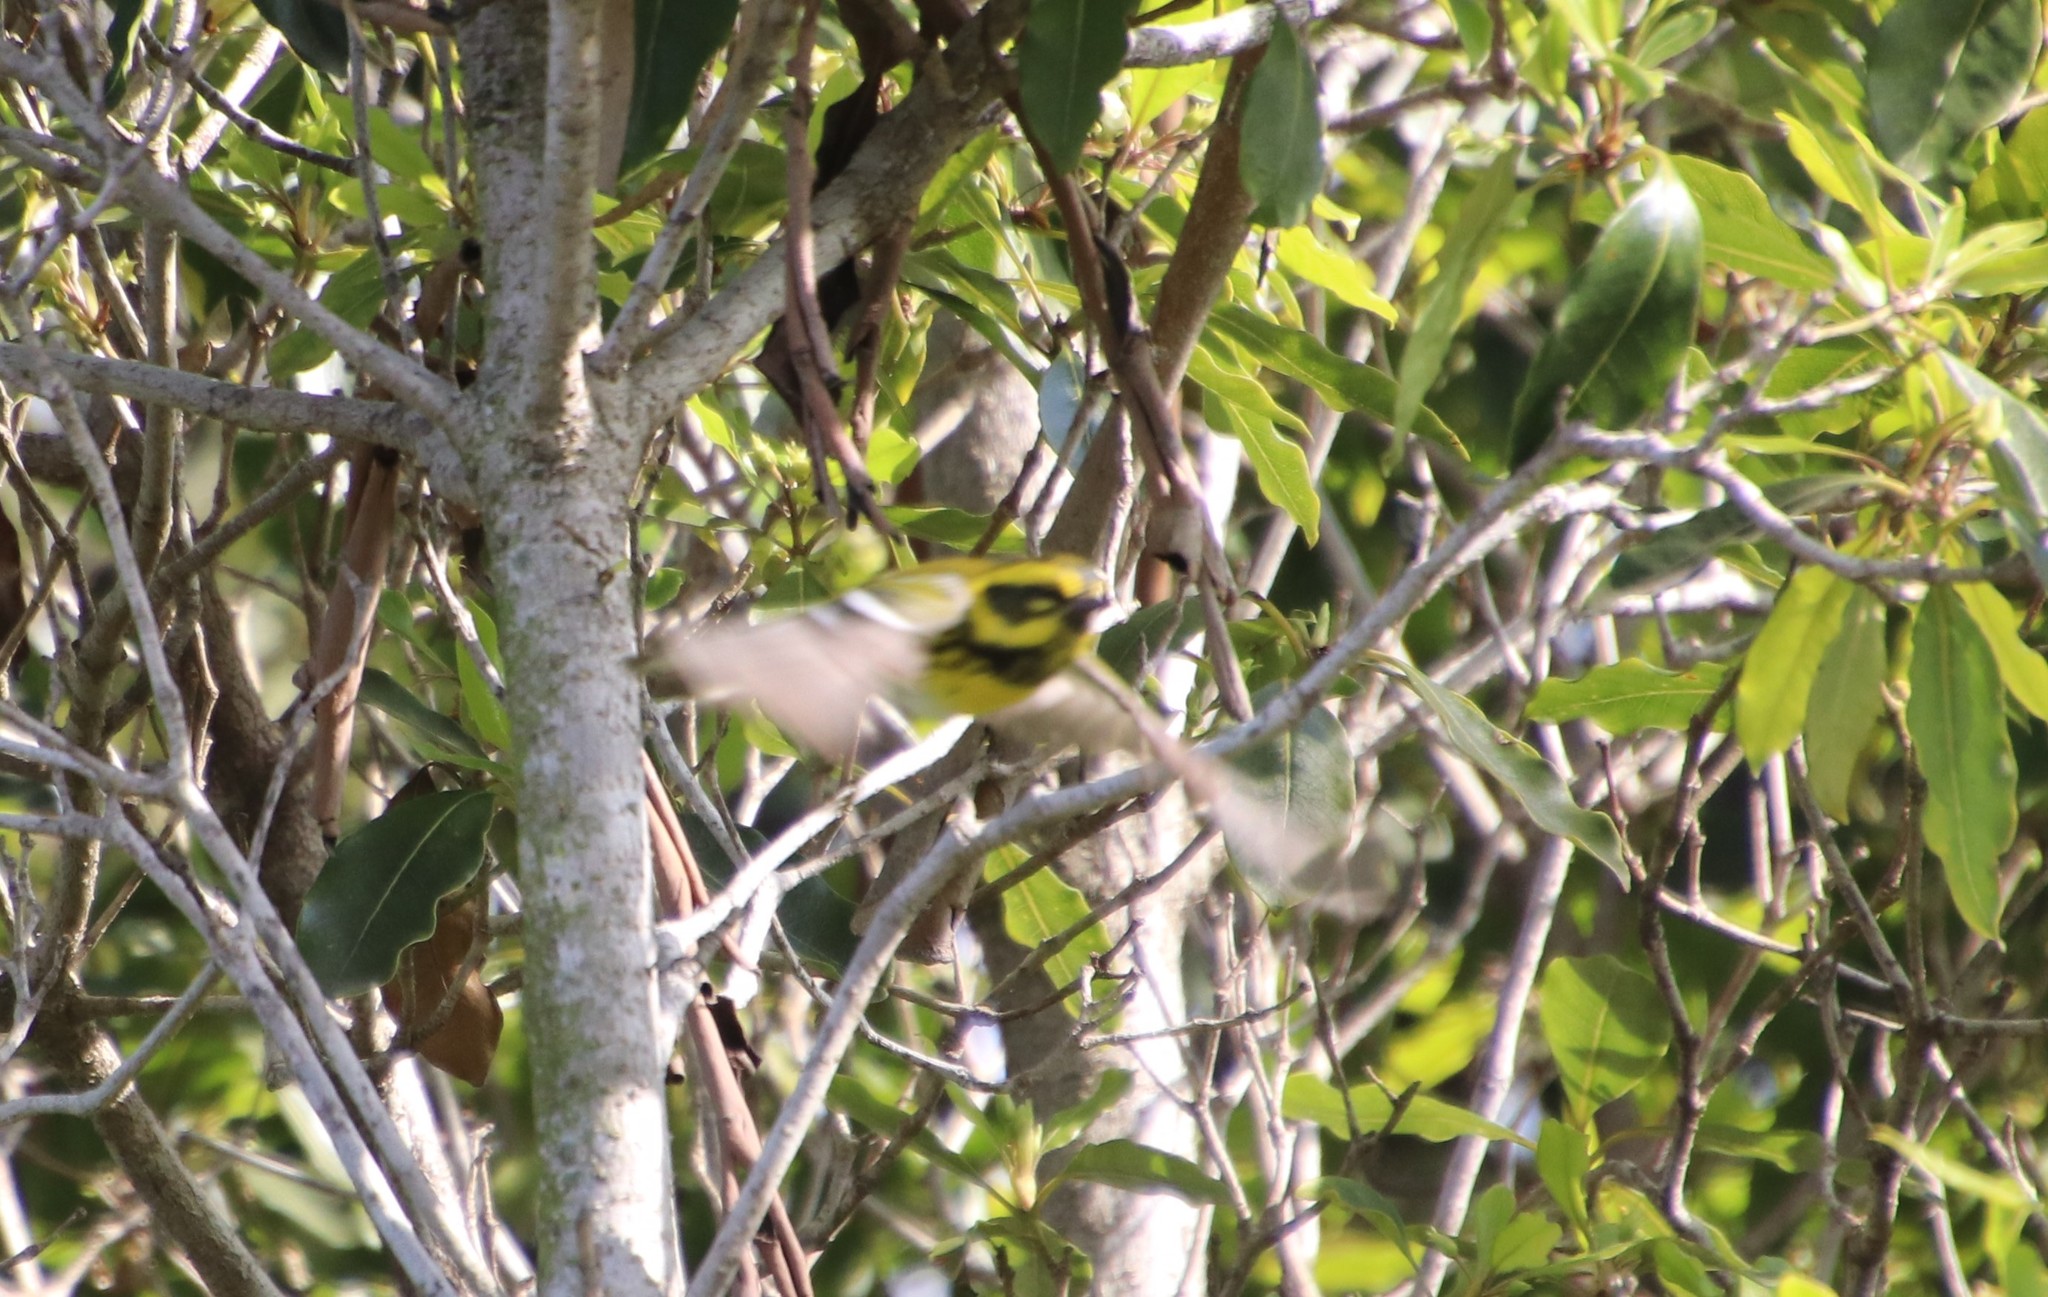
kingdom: Animalia
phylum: Chordata
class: Aves
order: Passeriformes
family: Parulidae
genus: Setophaga
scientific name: Setophaga townsendi
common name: Townsend's warbler
